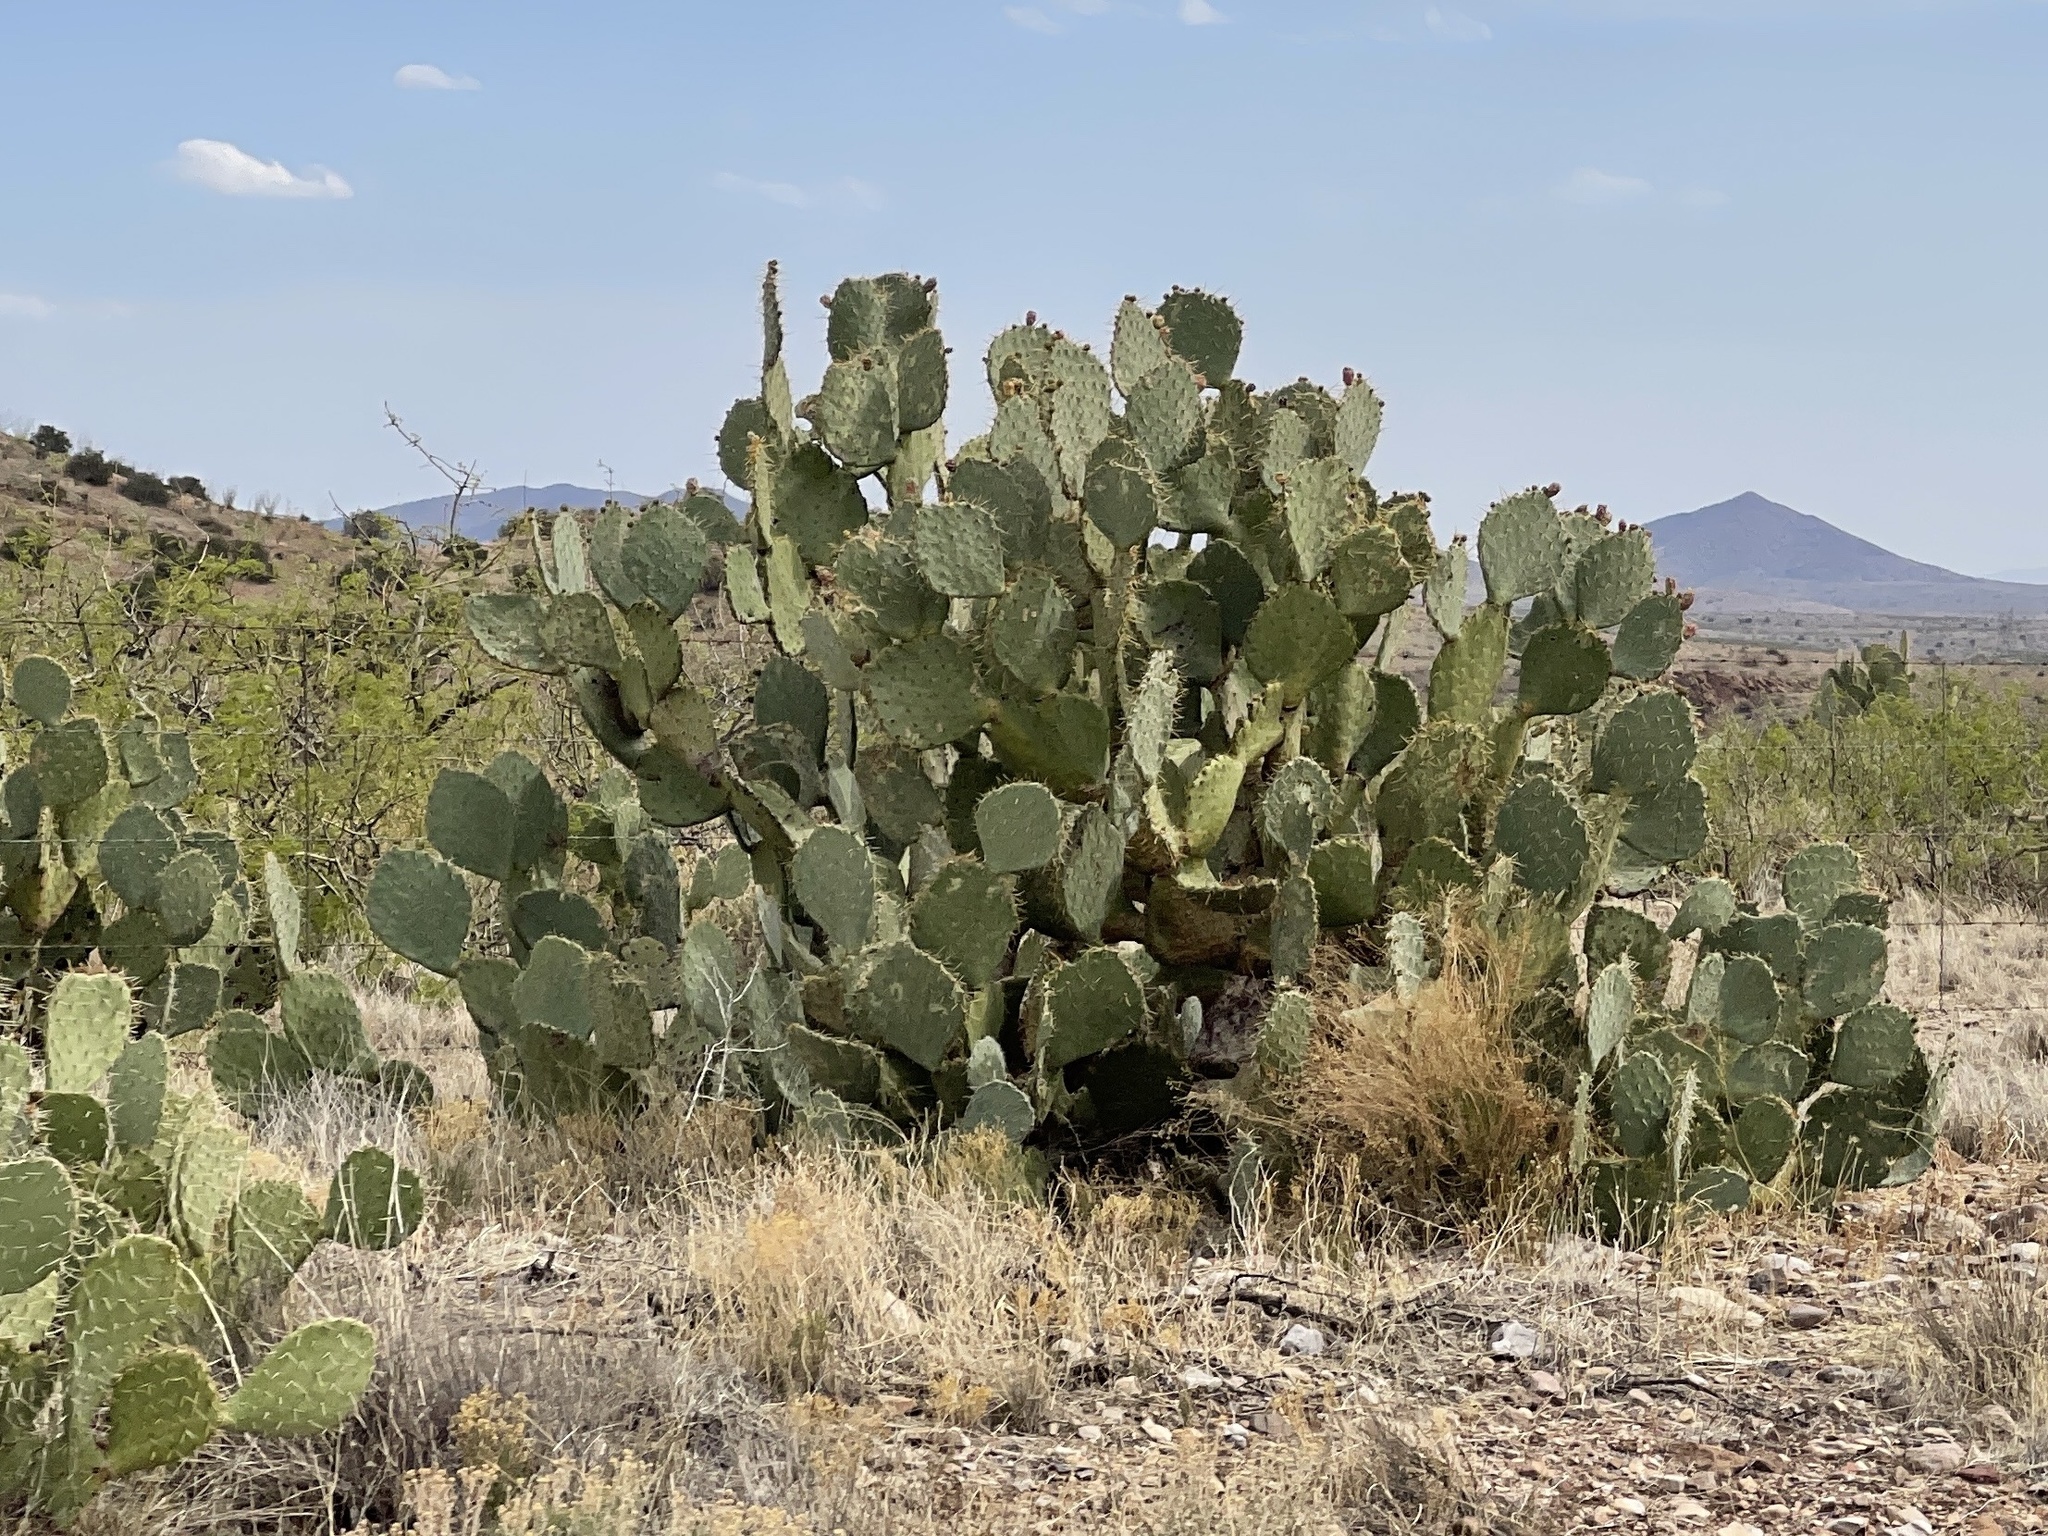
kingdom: Plantae
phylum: Tracheophyta
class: Magnoliopsida
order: Caryophyllales
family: Cactaceae
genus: Opuntia
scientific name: Opuntia engelmannii
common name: Cactus-apple
